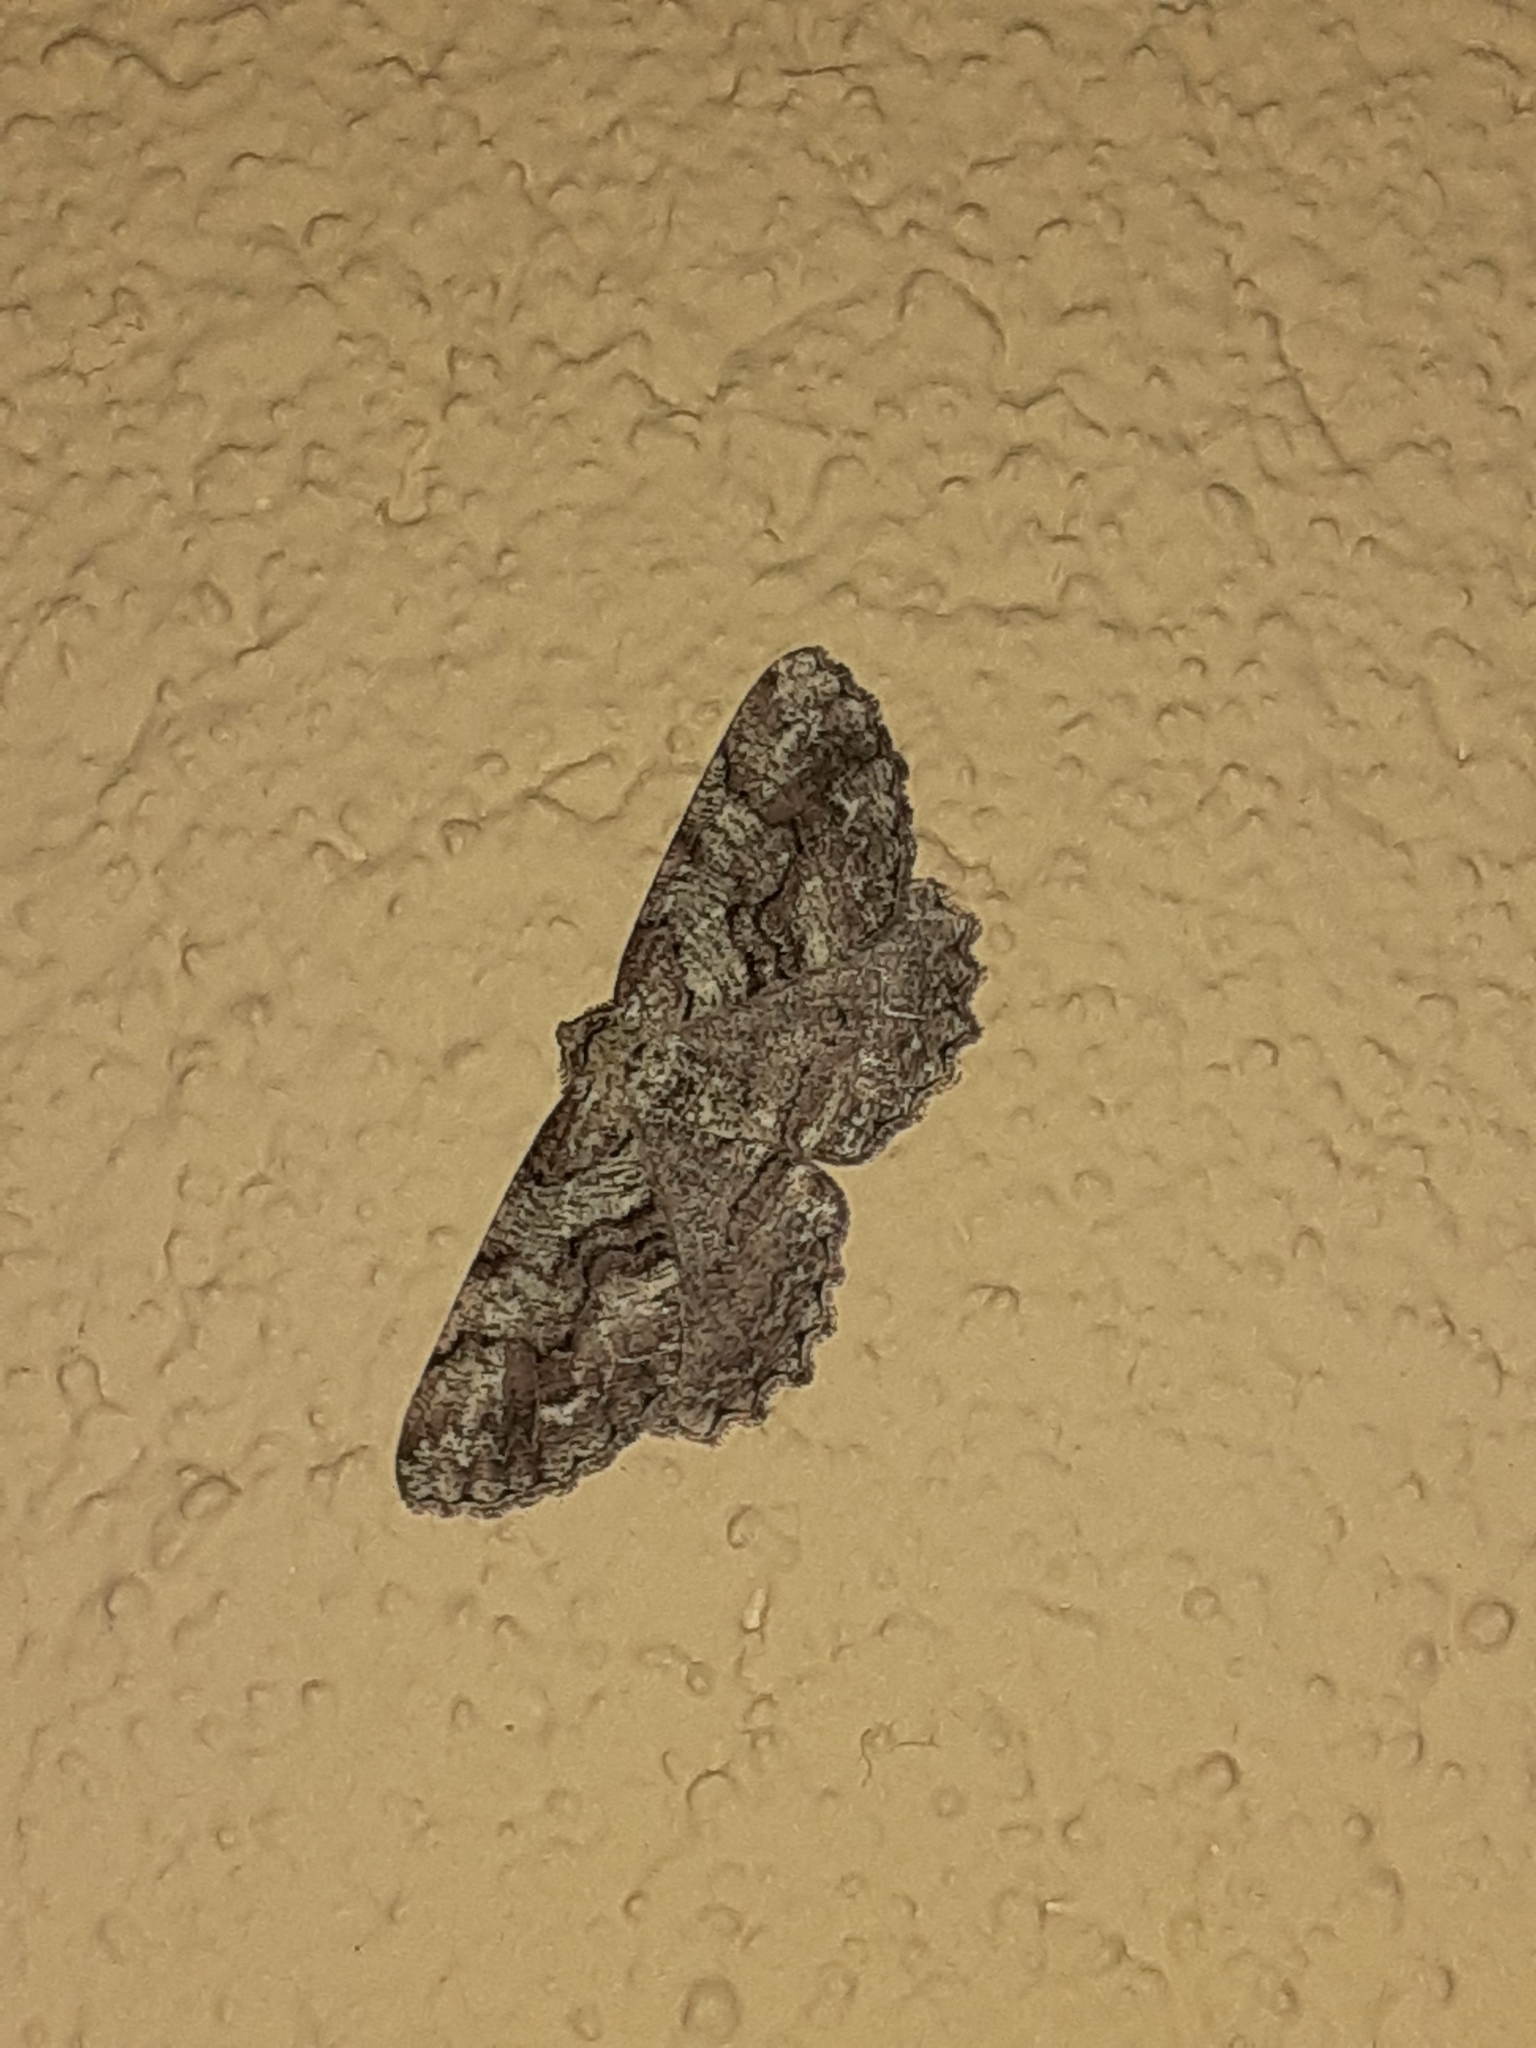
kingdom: Animalia
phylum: Arthropoda
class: Insecta
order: Lepidoptera
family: Geometridae
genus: Cymatophora
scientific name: Cymatophora approximaria
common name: Giant gray moth
